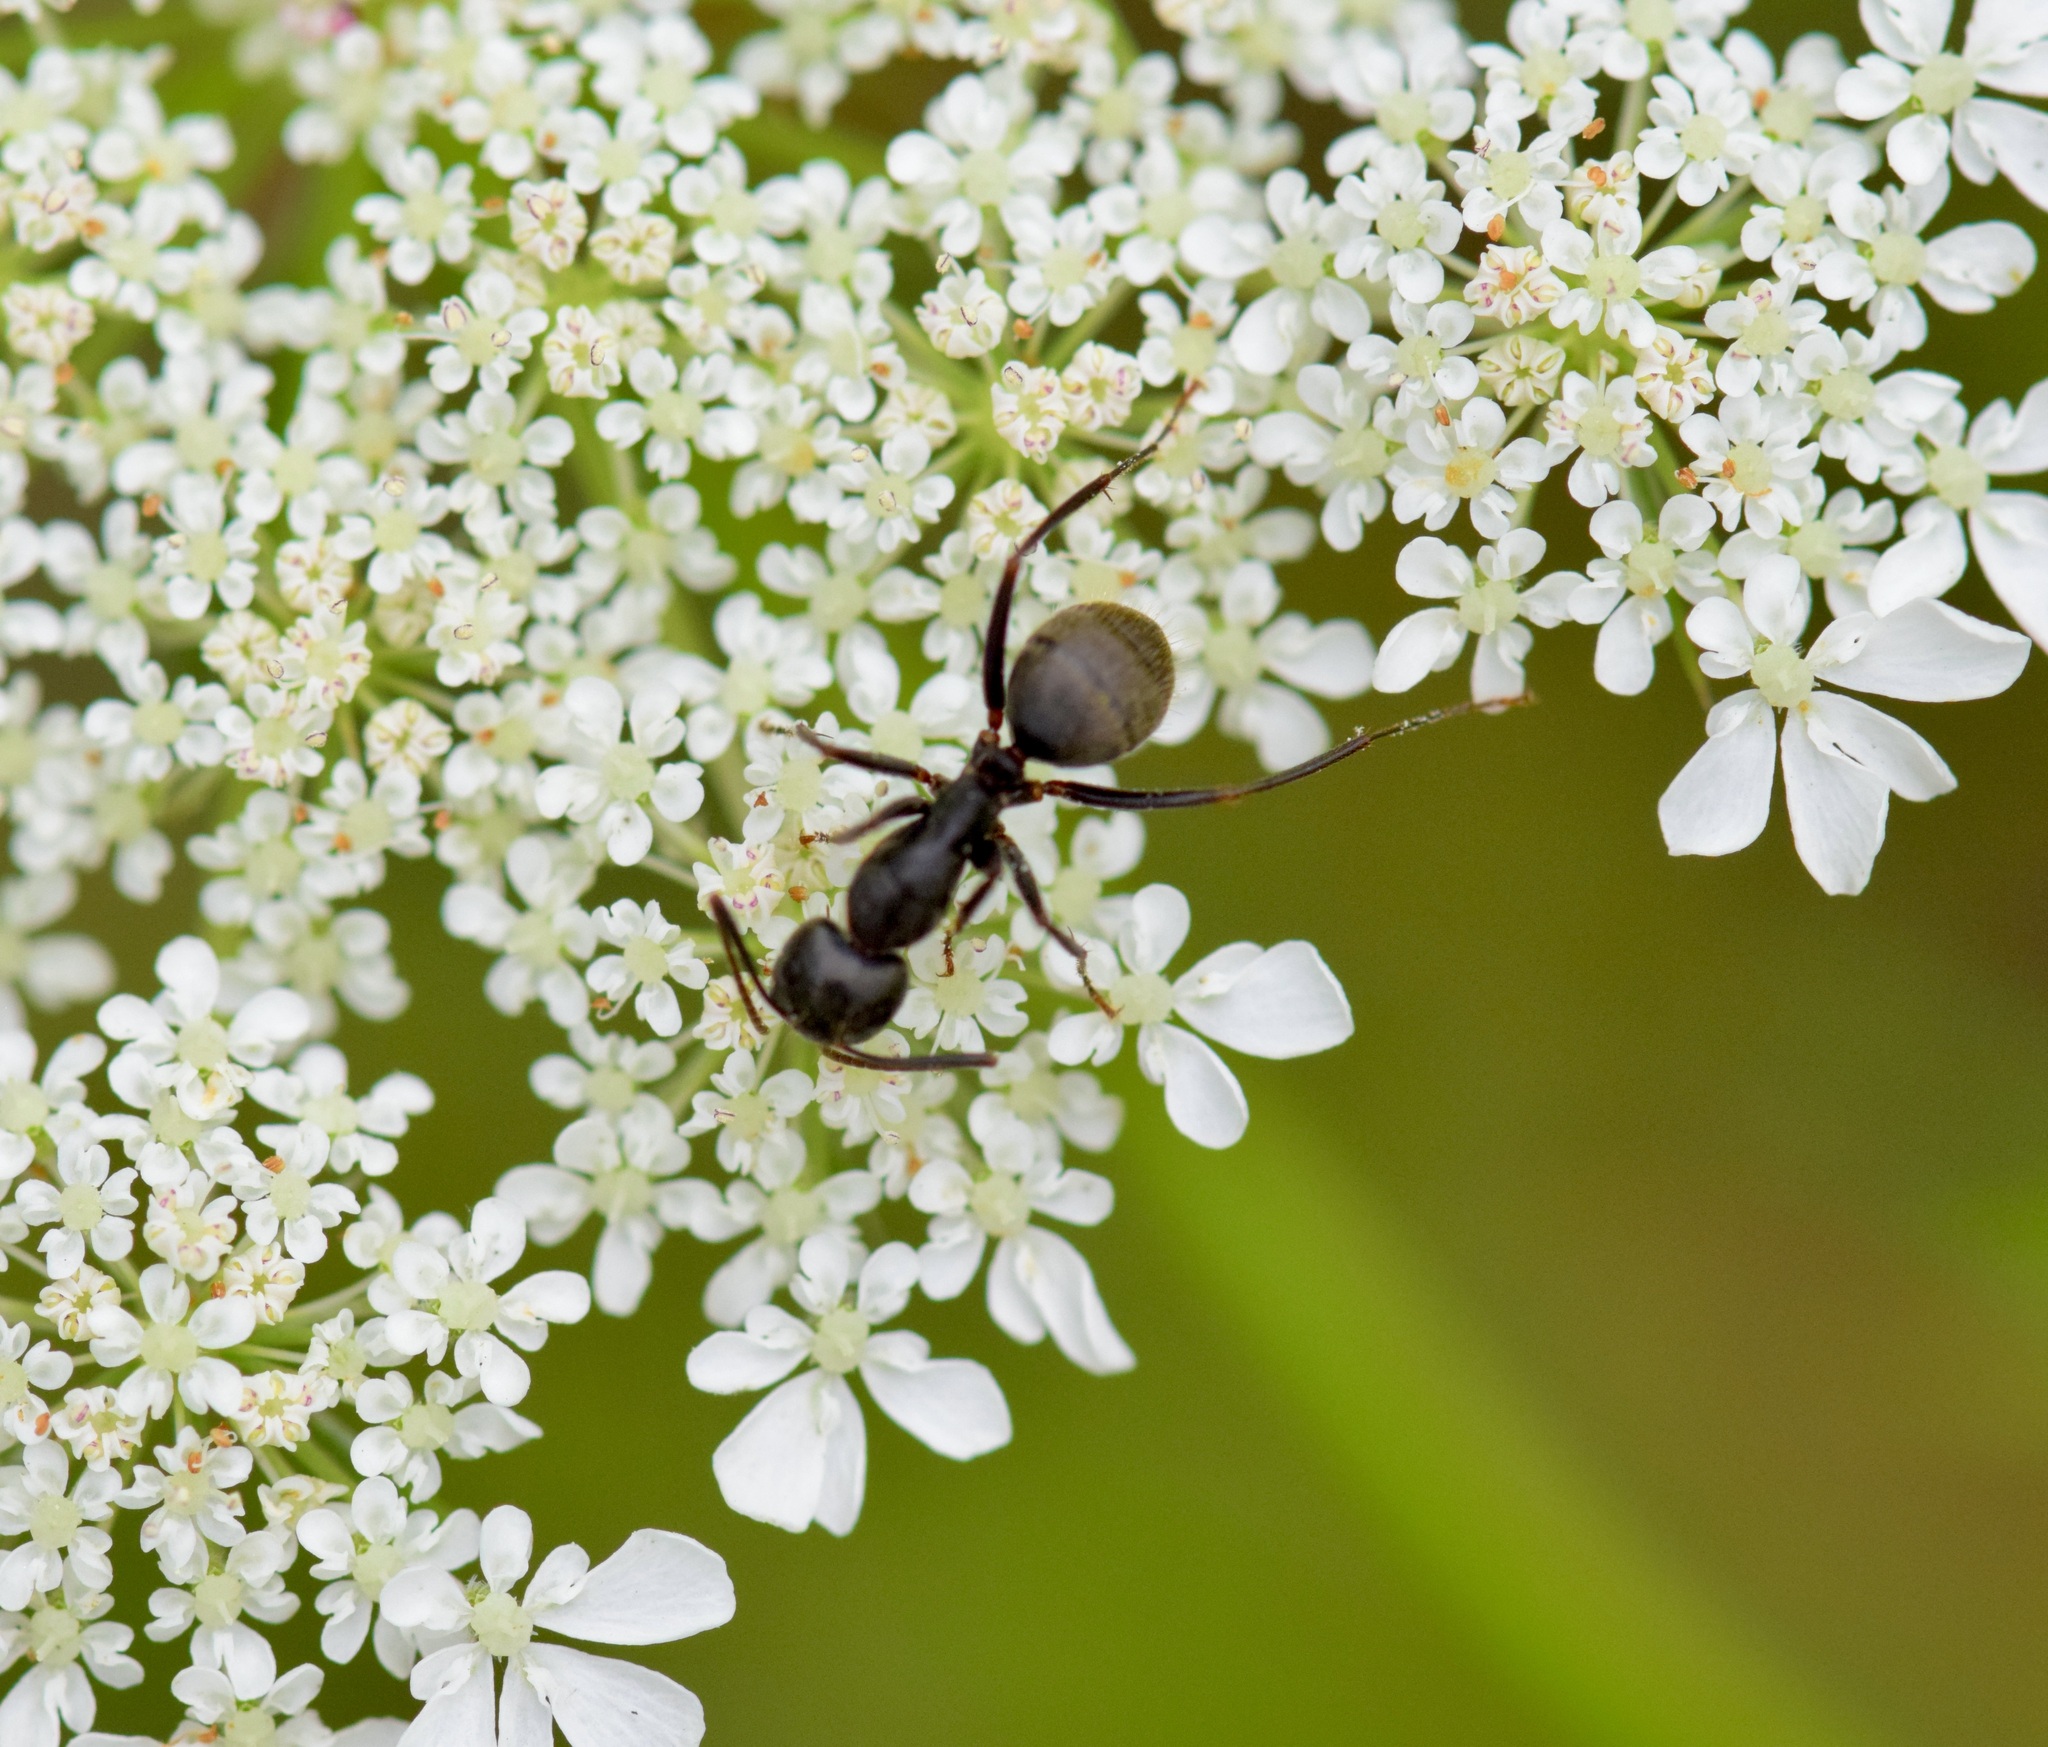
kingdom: Animalia
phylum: Arthropoda
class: Insecta
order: Hymenoptera
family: Formicidae
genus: Camponotus
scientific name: Camponotus pennsylvanicus
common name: Black carpenter ant
